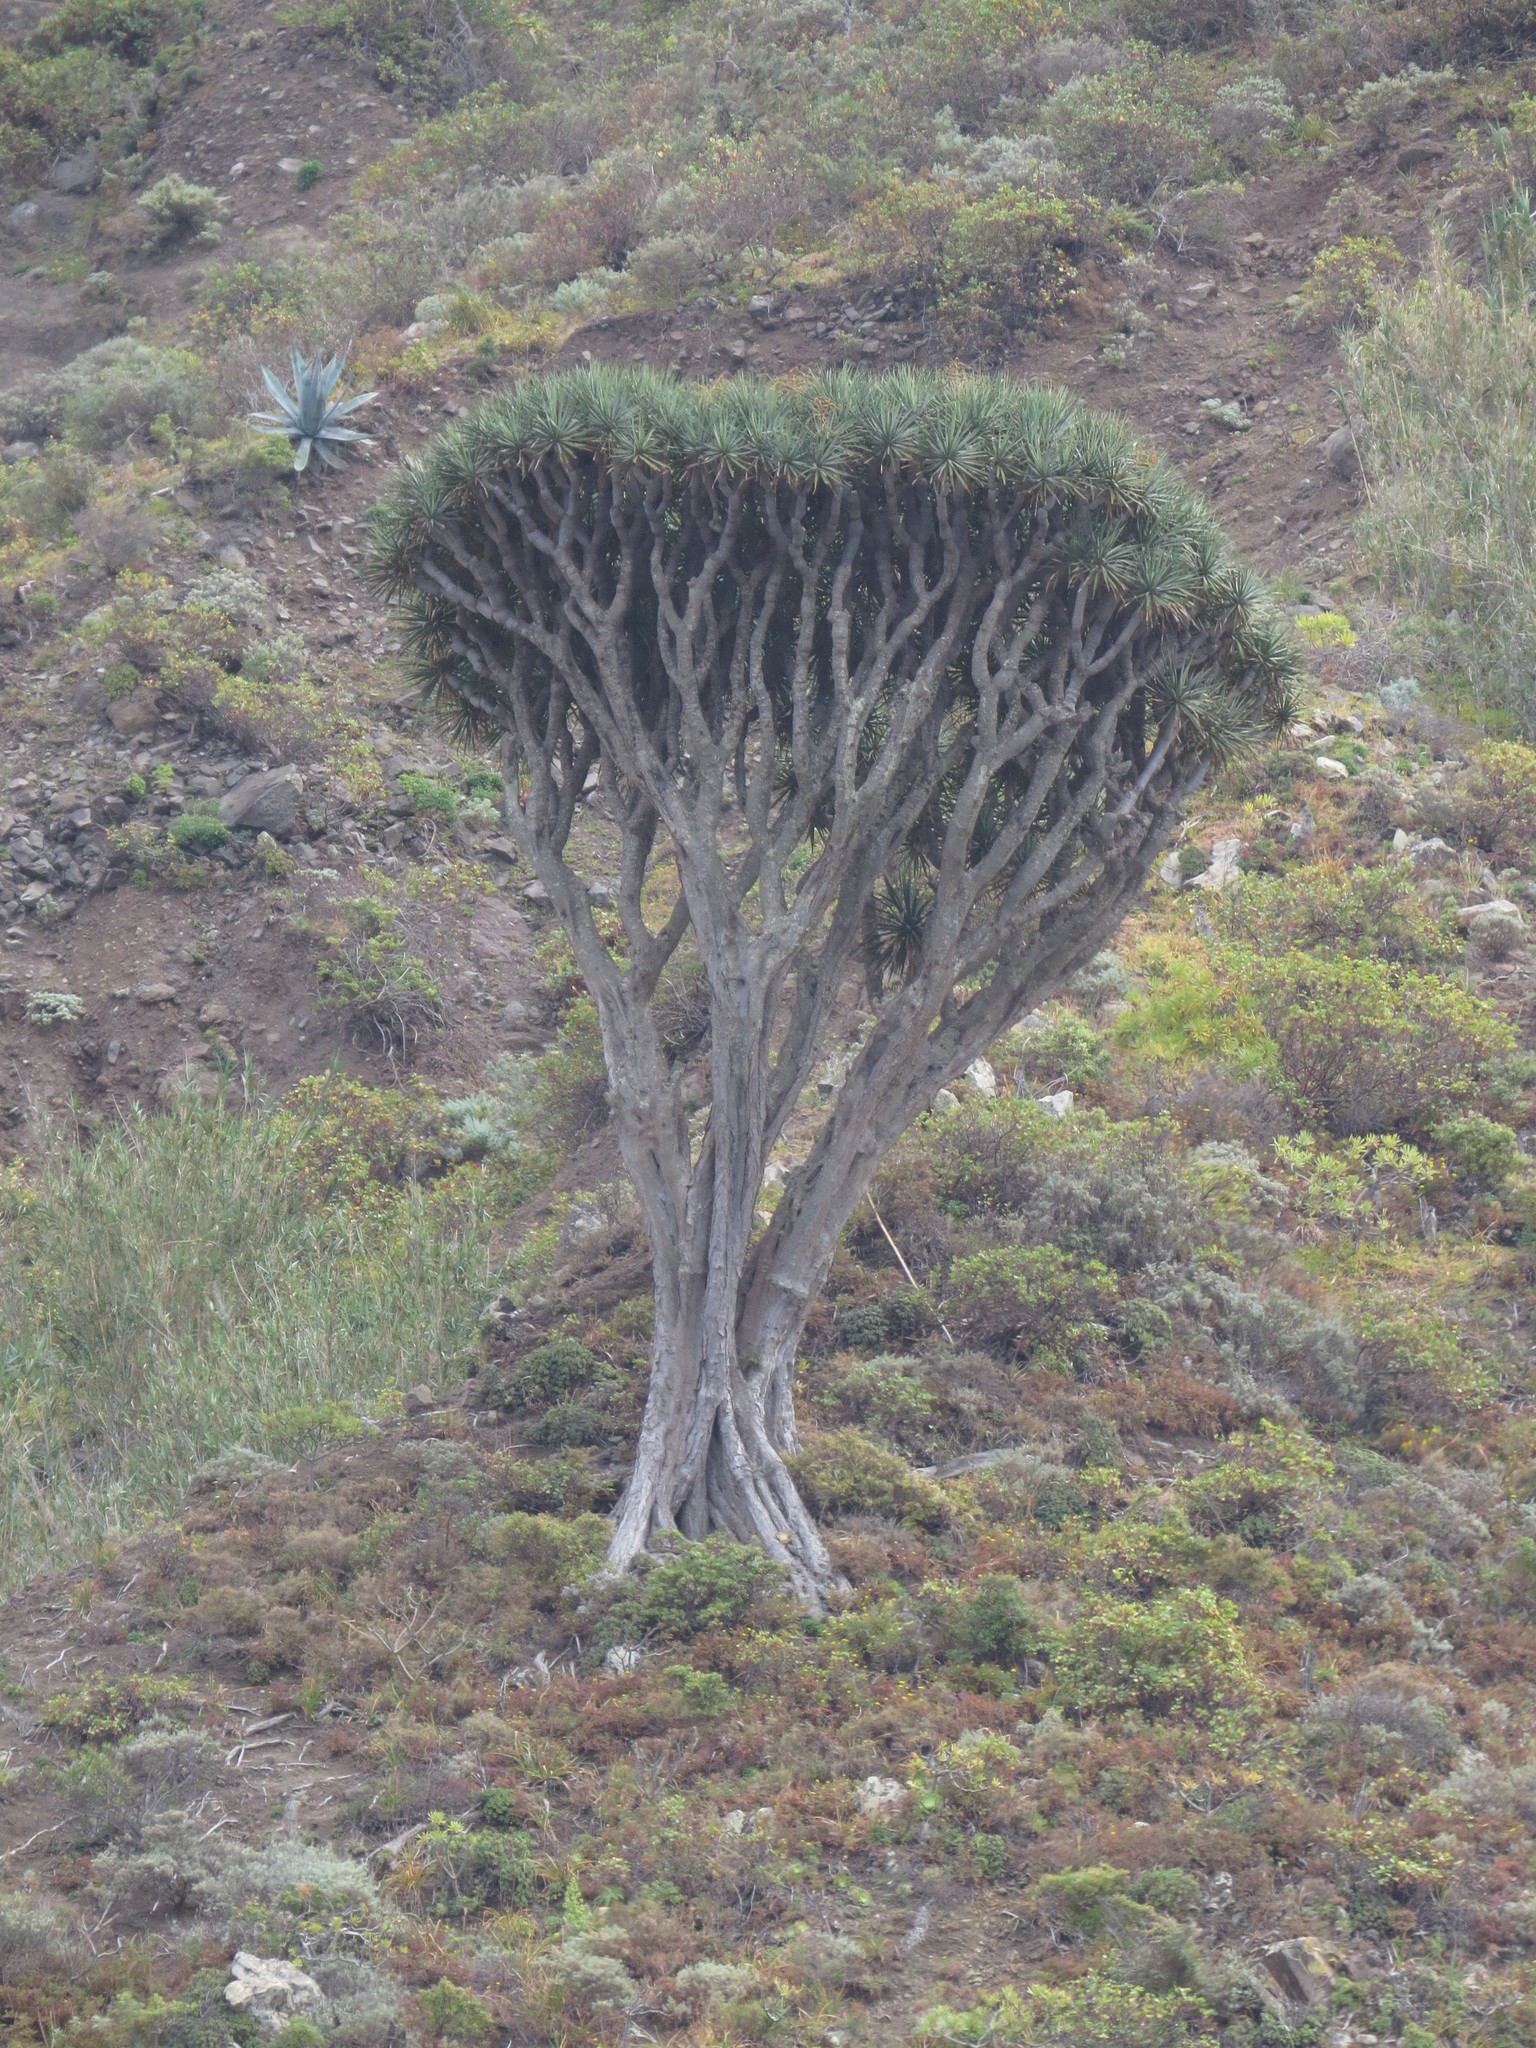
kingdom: Plantae
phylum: Tracheophyta
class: Liliopsida
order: Asparagales
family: Asparagaceae
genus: Dracaena
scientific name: Dracaena draco
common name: Canary island dragon tree
